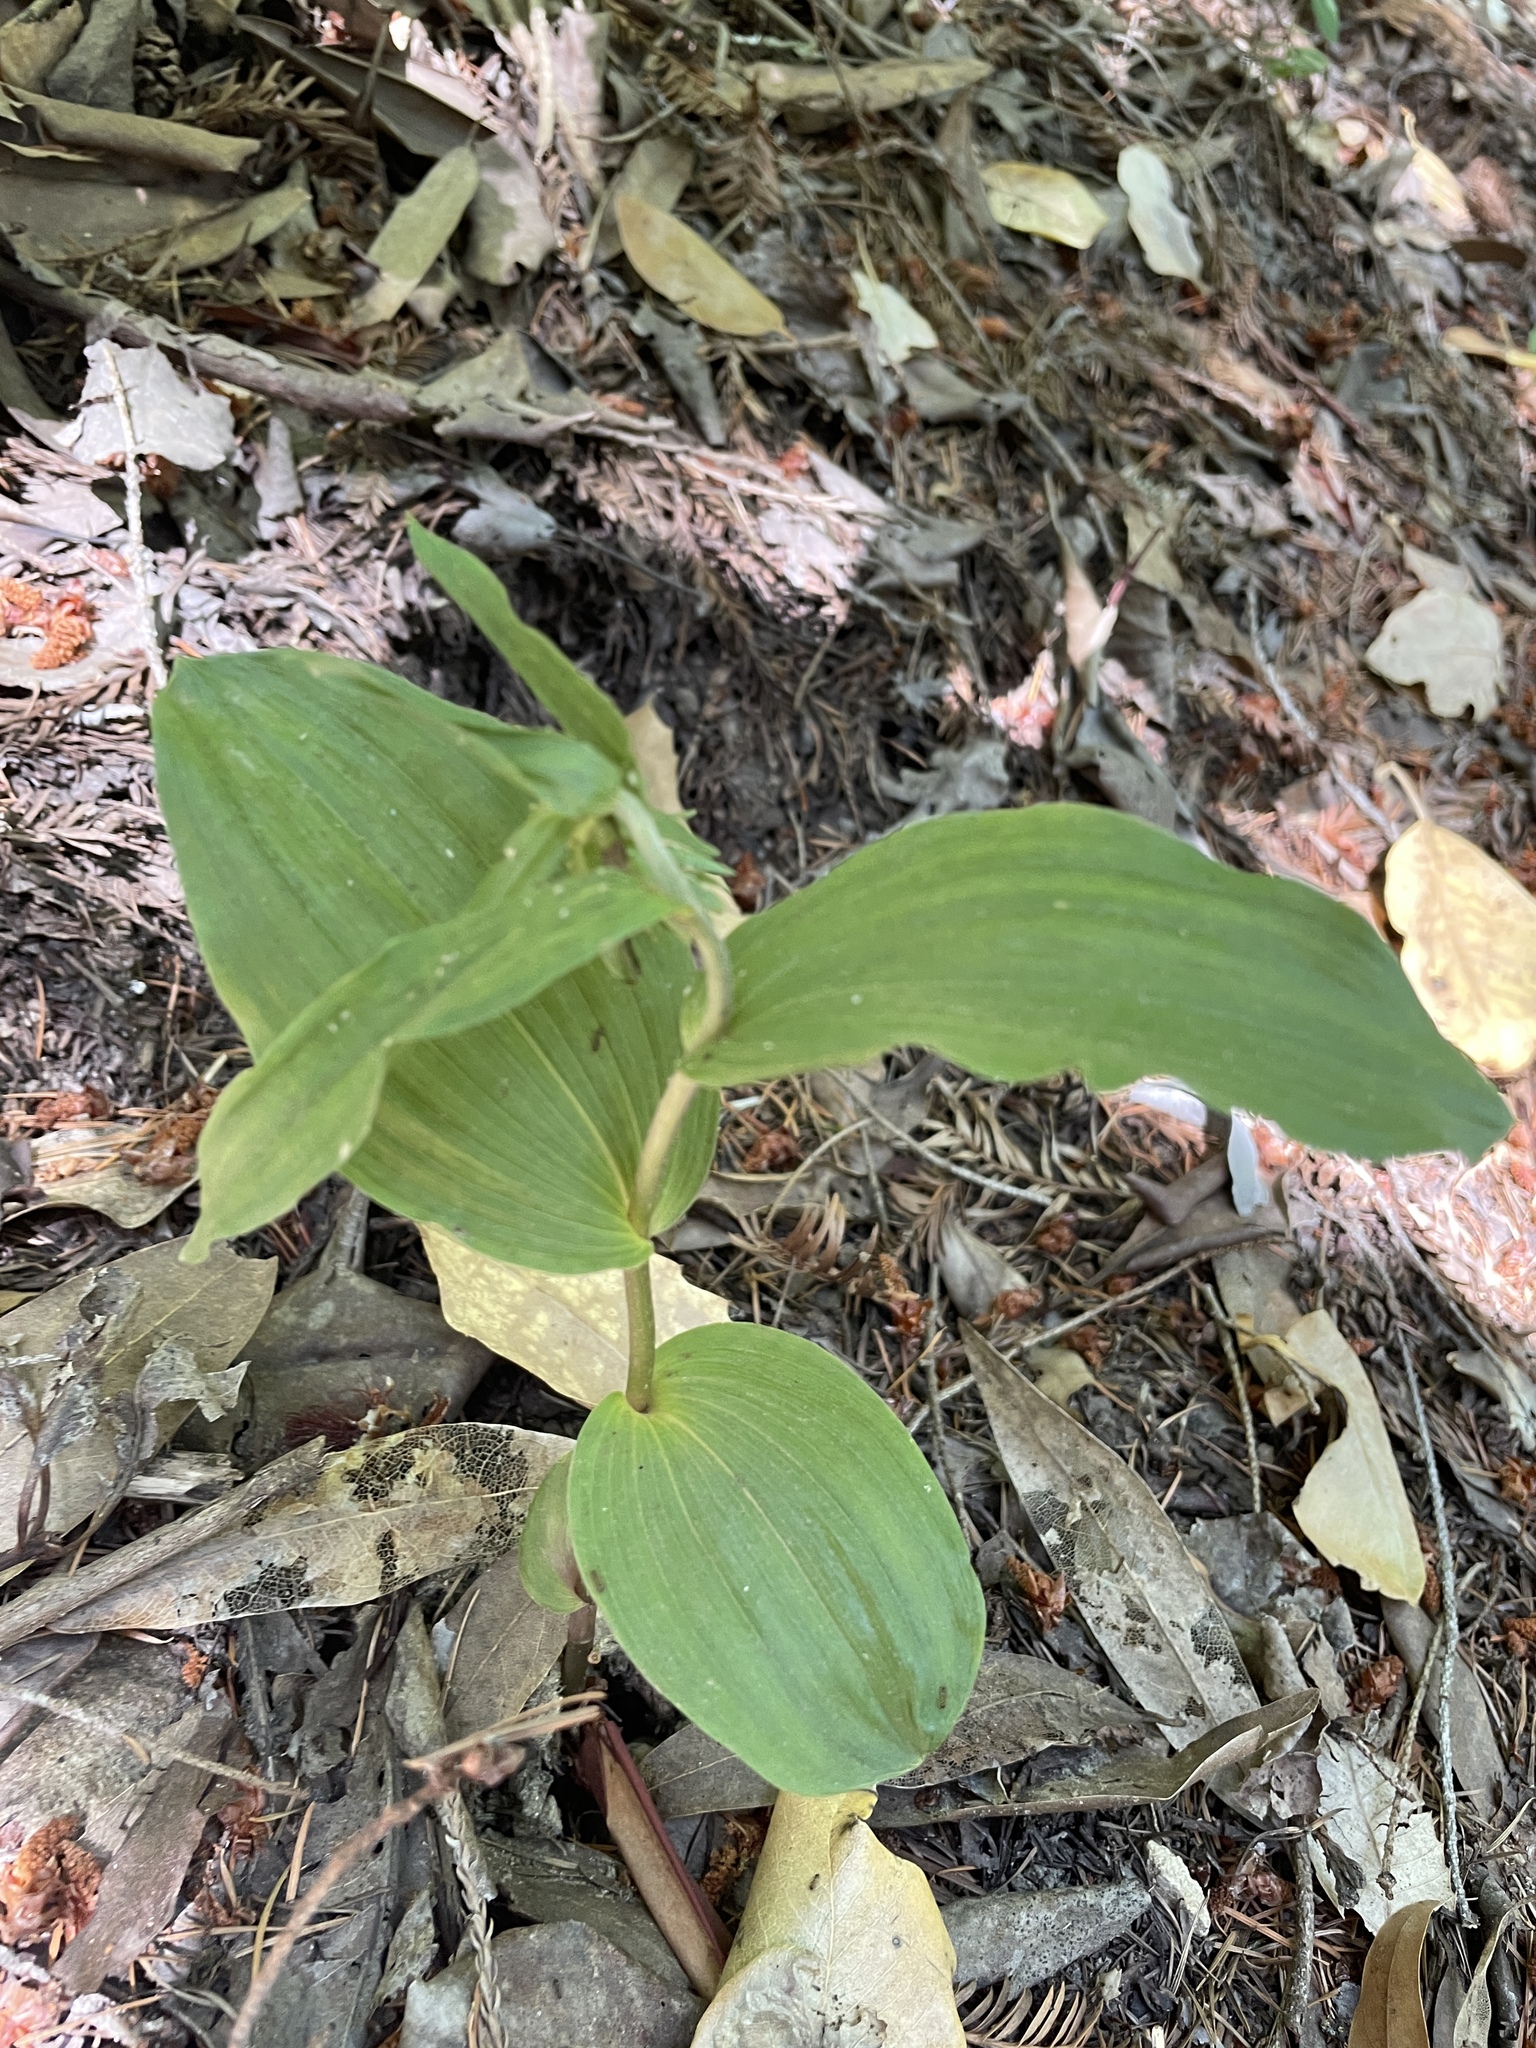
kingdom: Plantae
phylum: Tracheophyta
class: Liliopsida
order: Asparagales
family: Orchidaceae
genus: Epipactis
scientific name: Epipactis helleborine
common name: Broad-leaved helleborine
